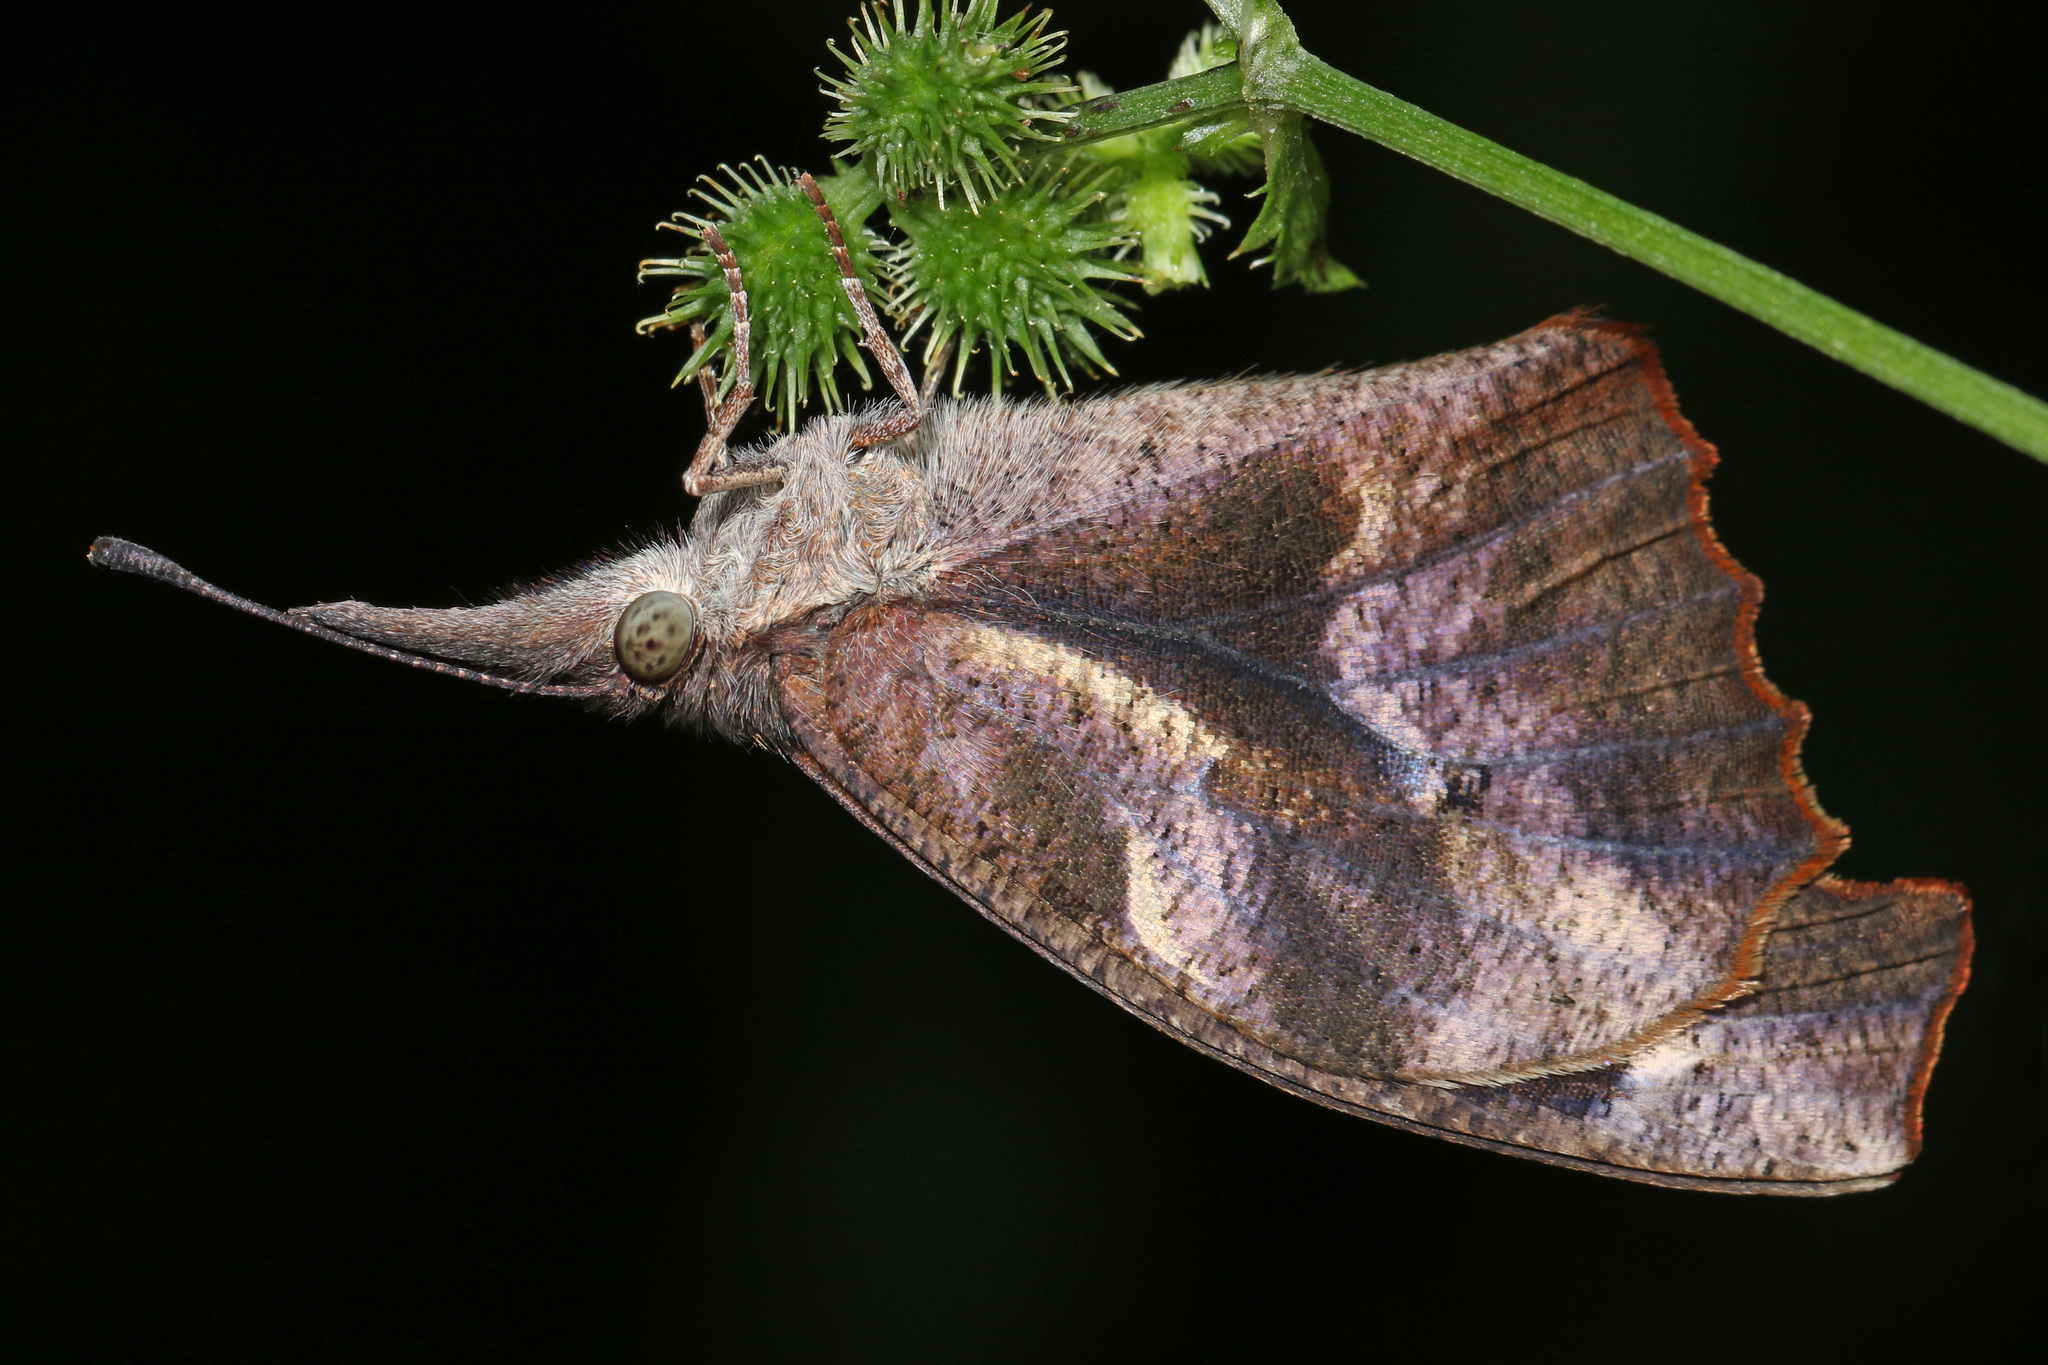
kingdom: Animalia
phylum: Arthropoda
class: Insecta
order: Lepidoptera
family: Nymphalidae
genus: Libytheana
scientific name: Libytheana carinenta
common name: American snout
